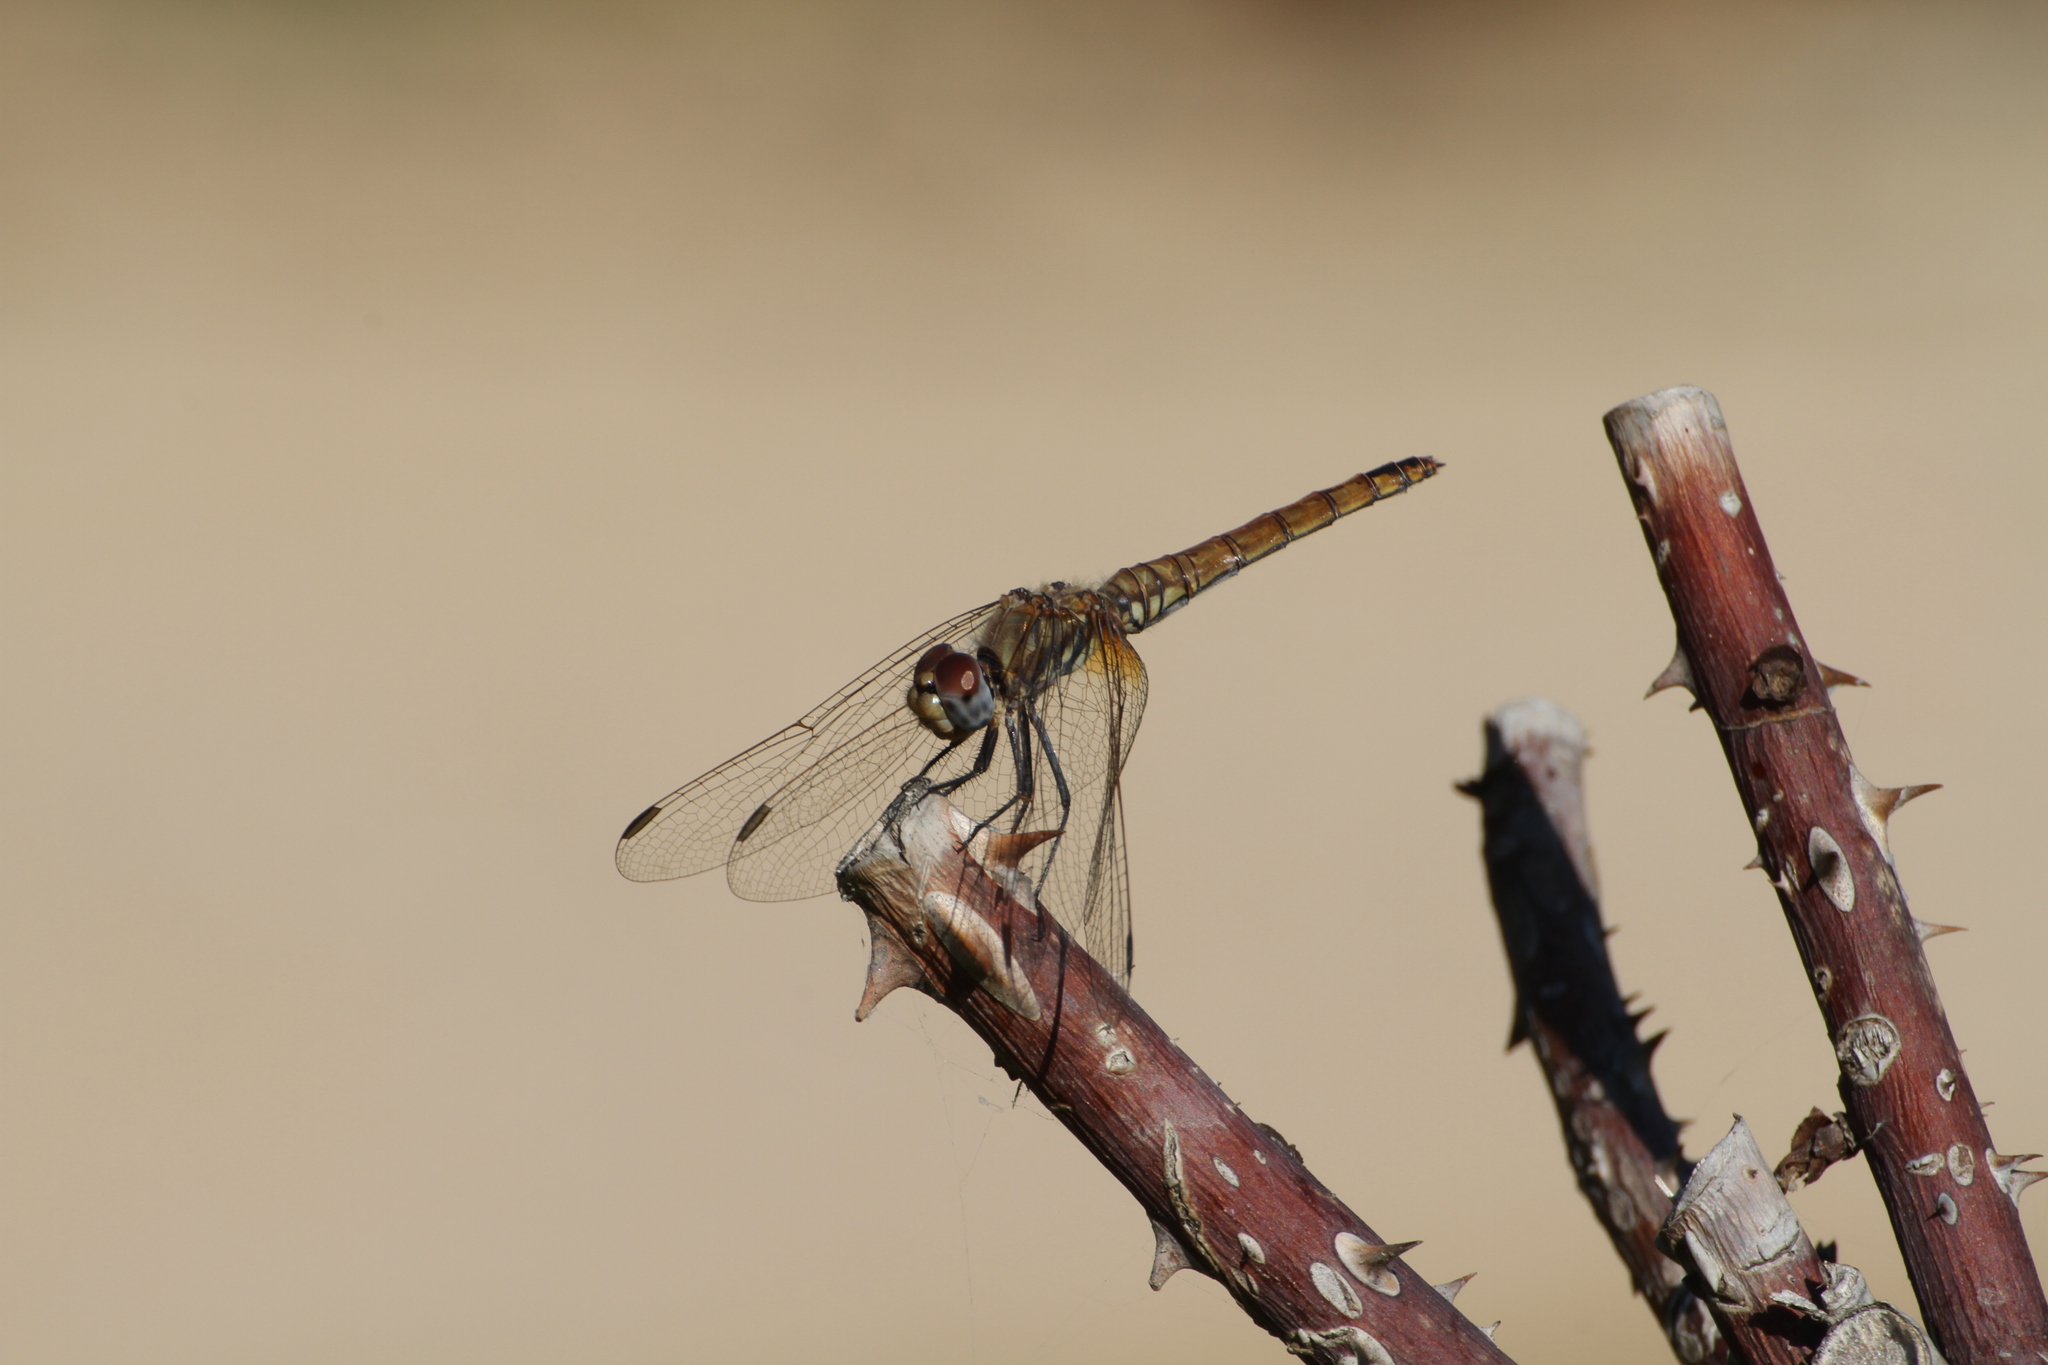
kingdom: Animalia
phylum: Arthropoda
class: Insecta
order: Odonata
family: Libellulidae
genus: Trithemis
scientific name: Trithemis annulata
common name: Violet dropwing
